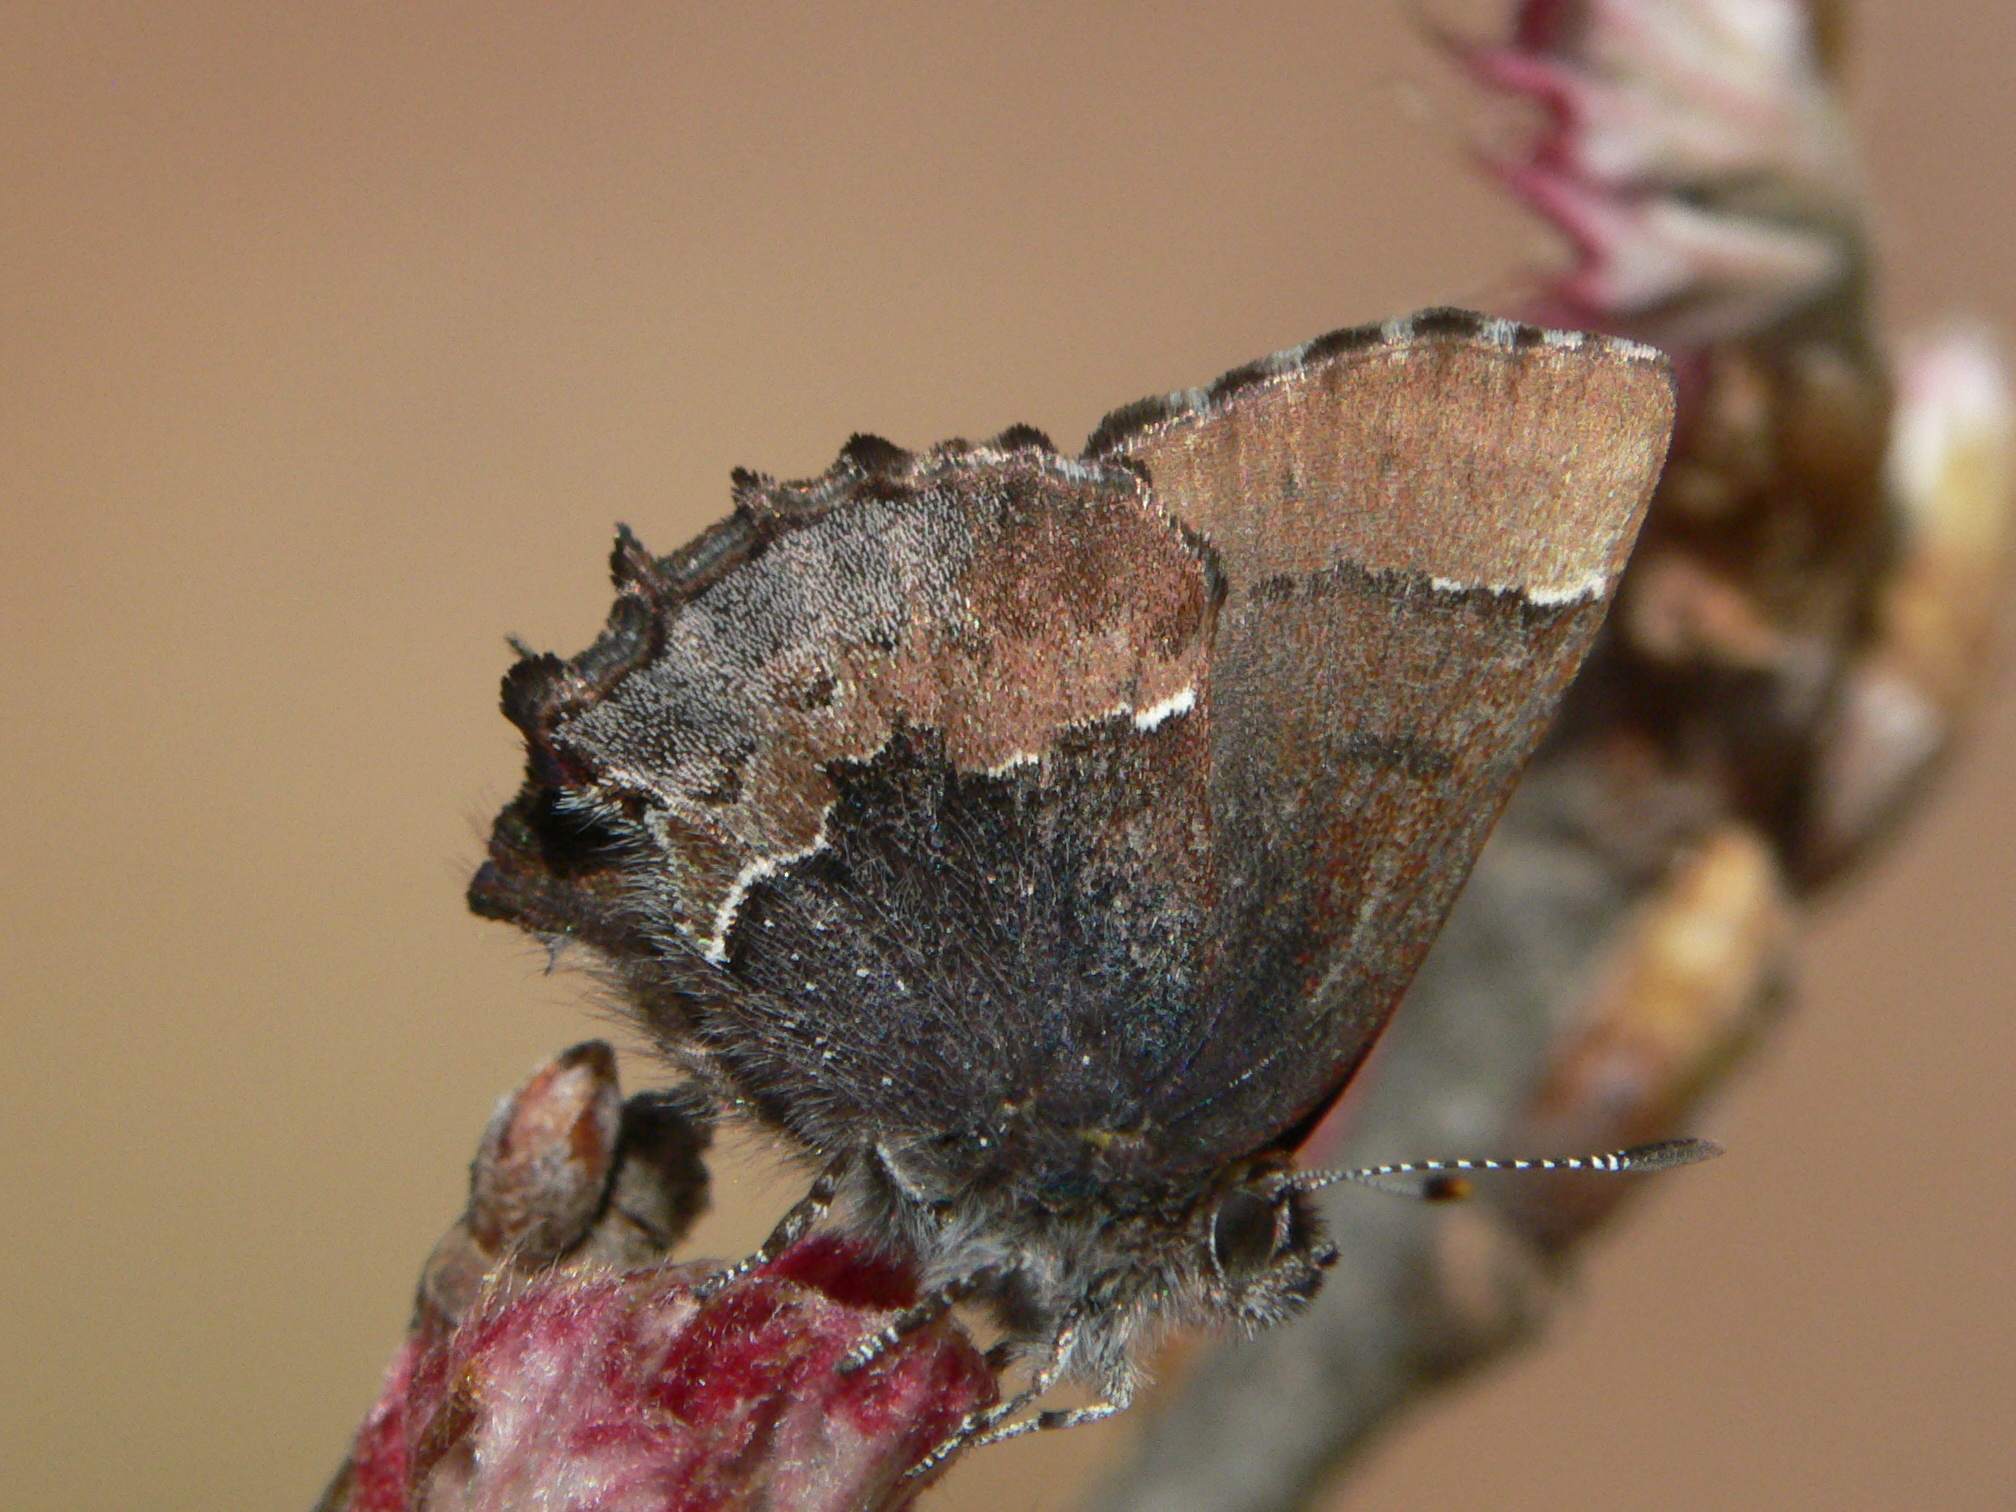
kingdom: Animalia
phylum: Arthropoda
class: Insecta
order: Lepidoptera
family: Lycaenidae
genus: Incisalia
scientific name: Incisalia henrici
